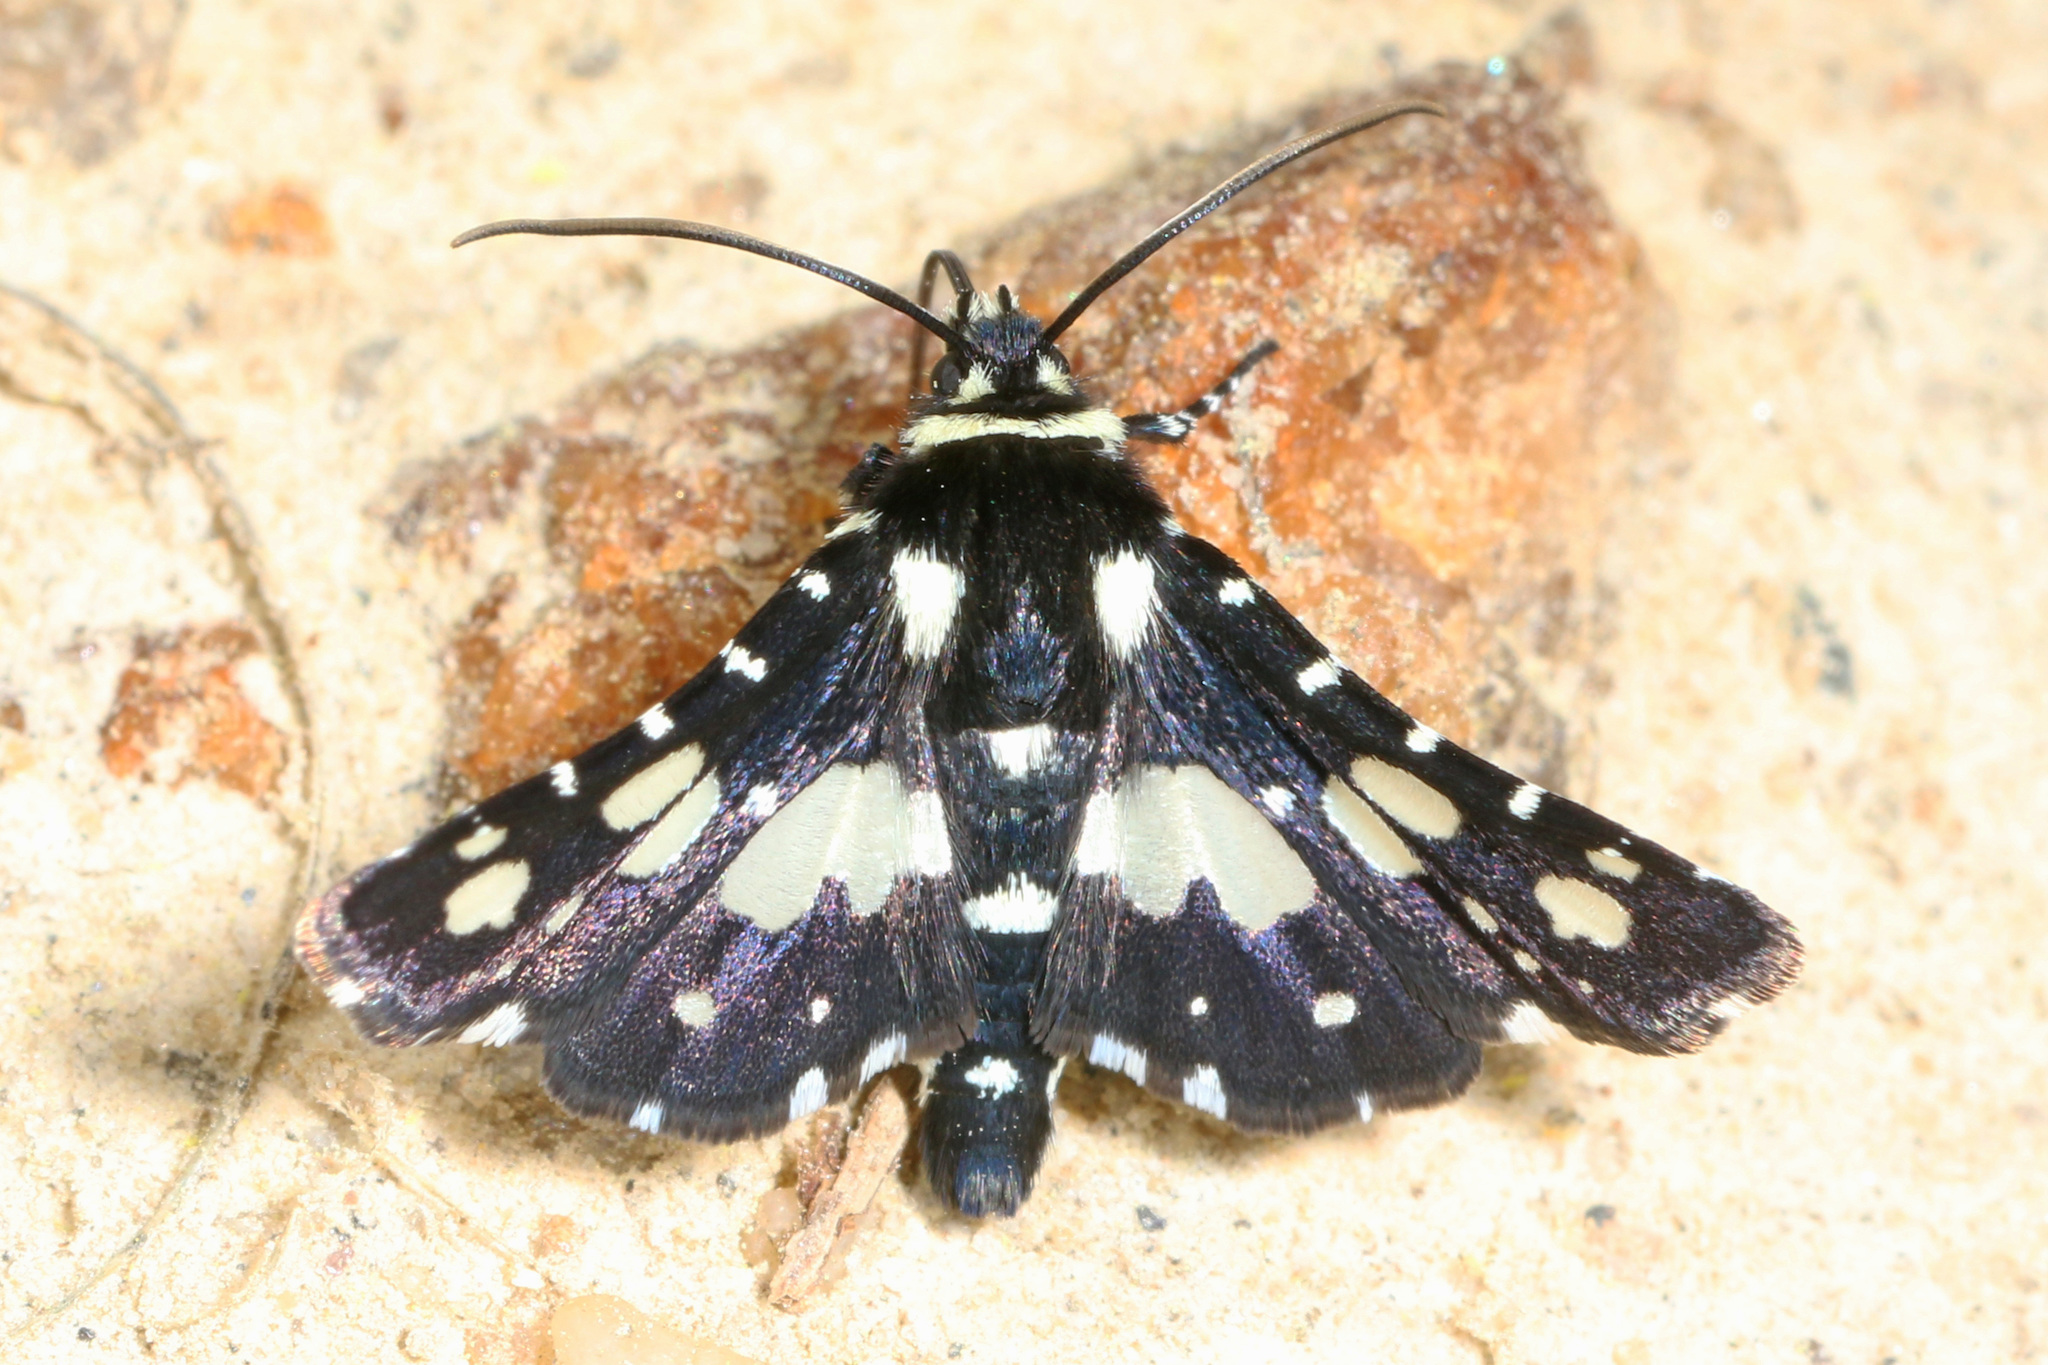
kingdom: Animalia
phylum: Arthropoda
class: Insecta
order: Lepidoptera
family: Thyrididae
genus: Pseudothyris
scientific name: Pseudothyris sepulchralis
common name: Mournful thyris moth
